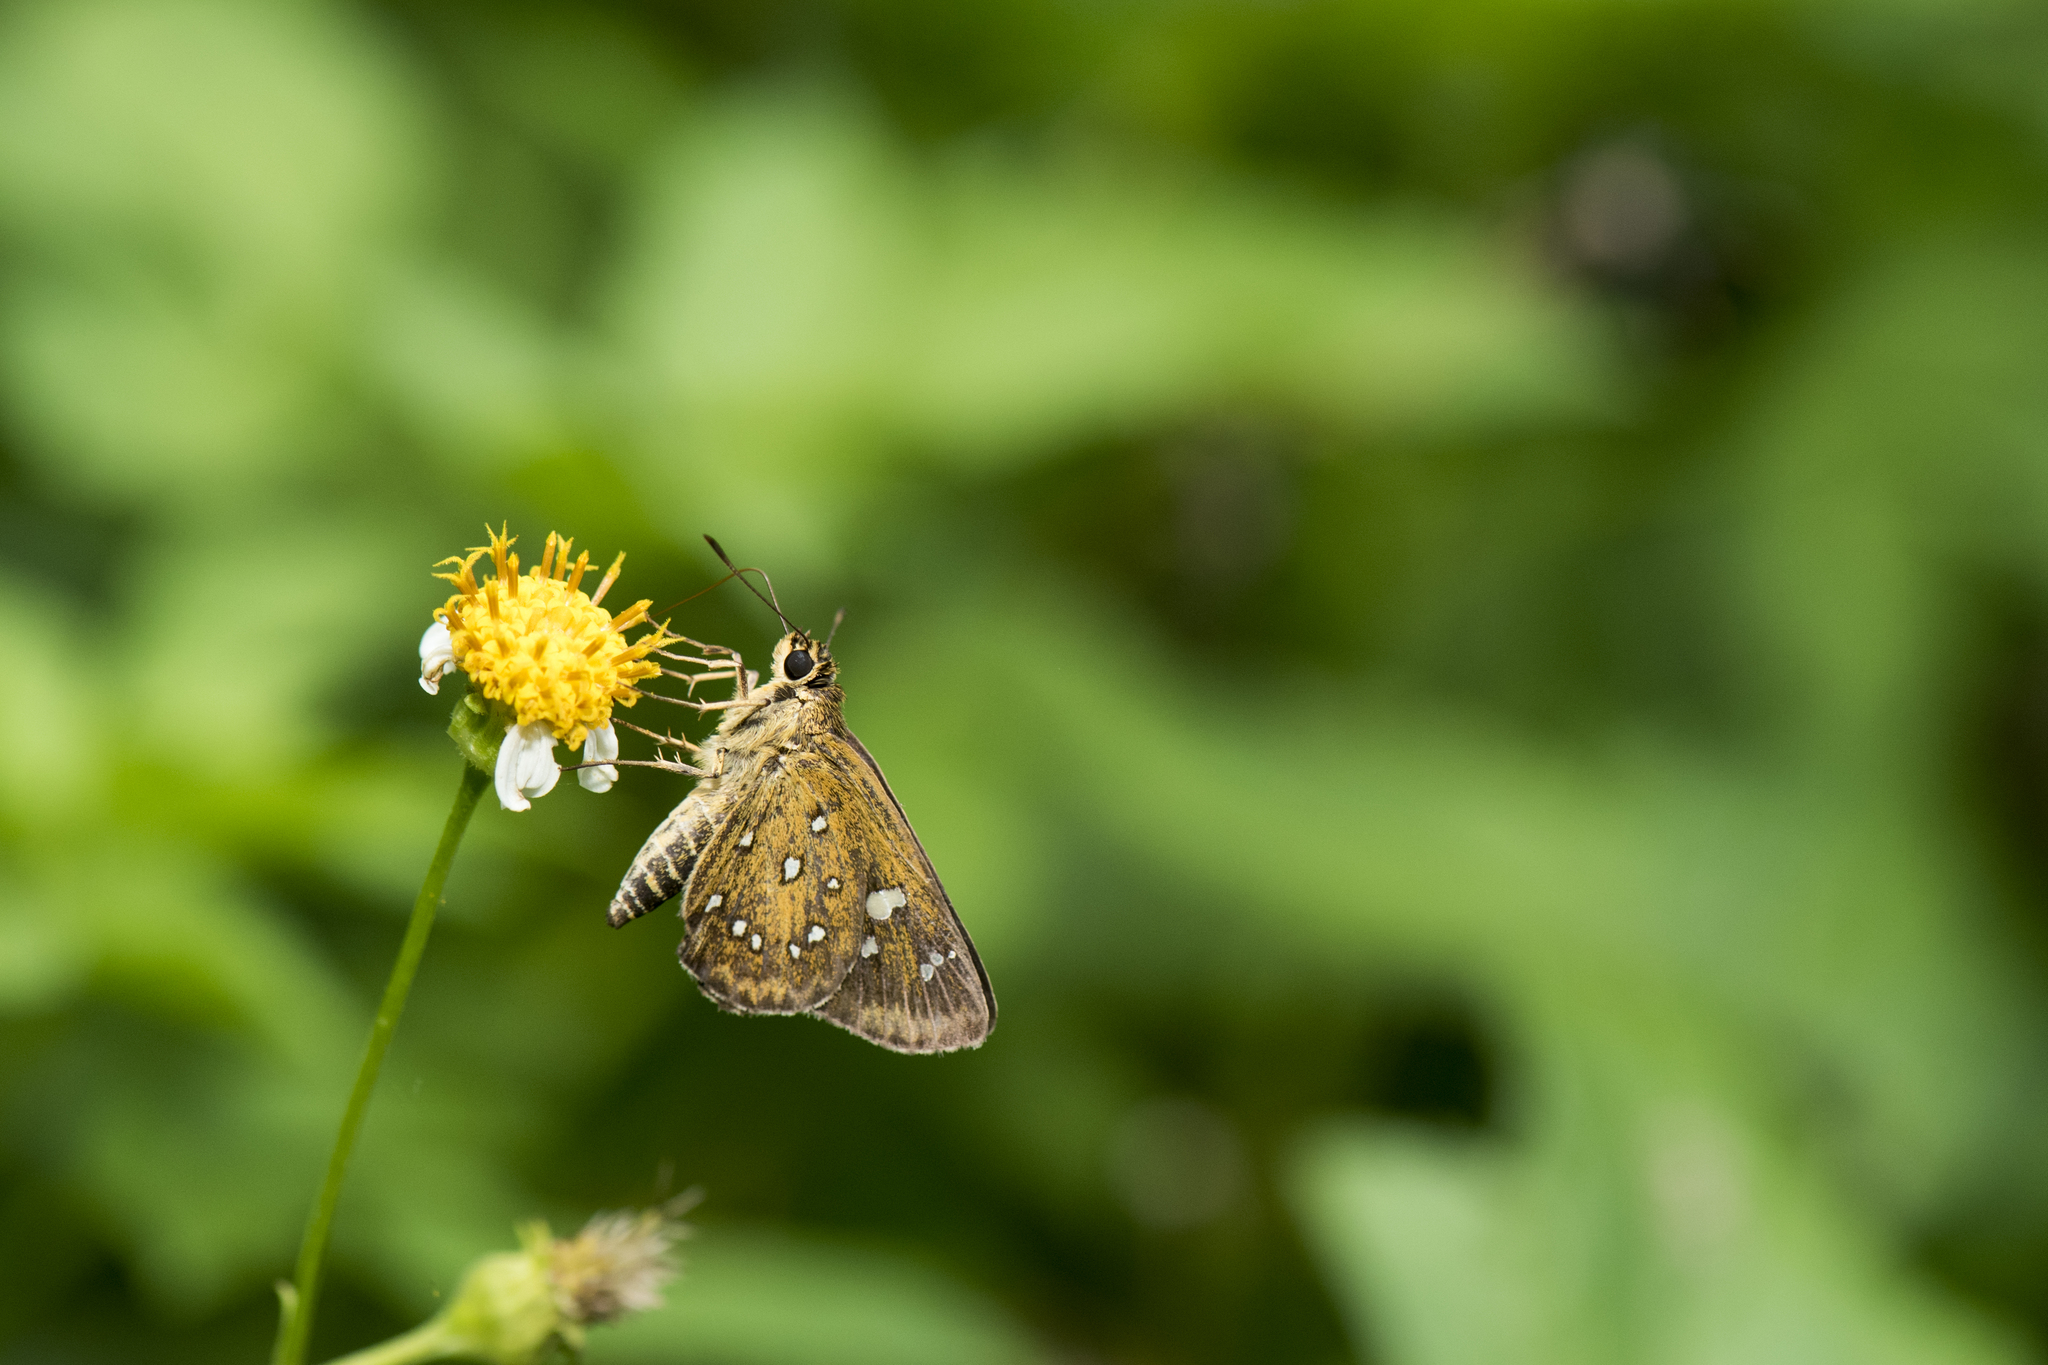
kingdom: Animalia
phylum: Arthropoda
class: Insecta
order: Lepidoptera
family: Hesperiidae
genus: Isoteinon
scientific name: Isoteinon lamprospilus
